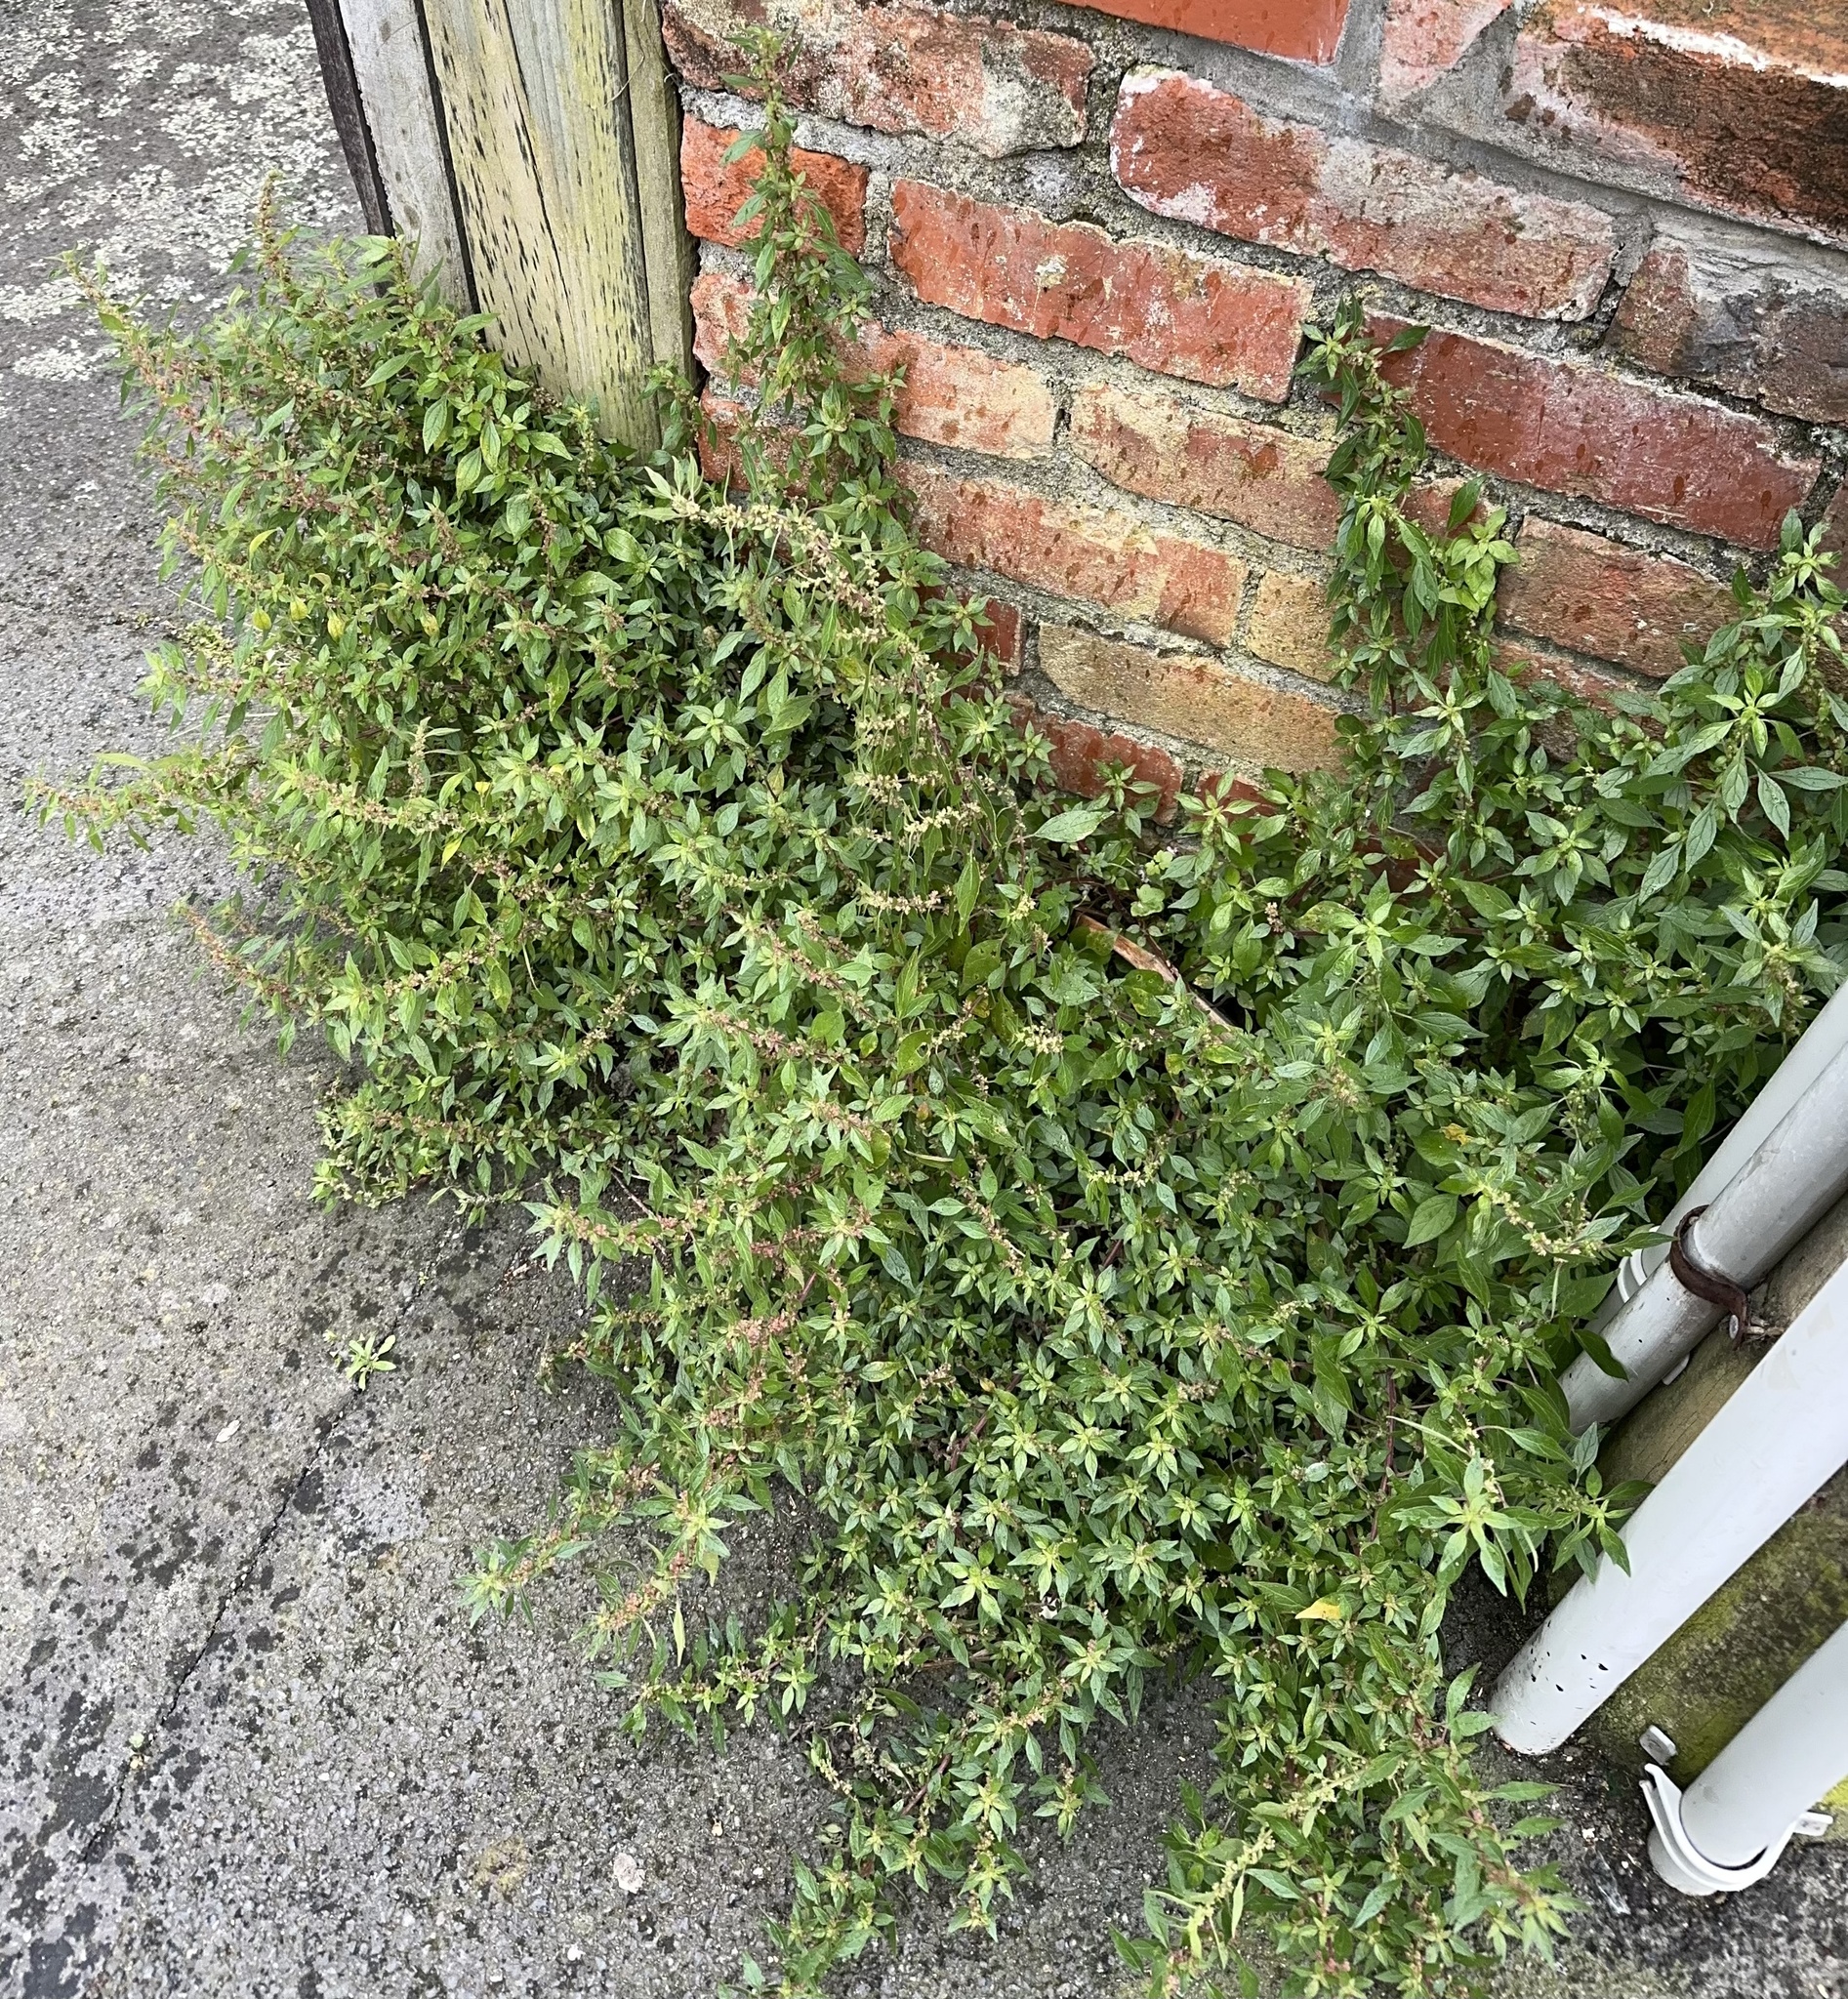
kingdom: Plantae
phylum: Tracheophyta
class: Magnoliopsida
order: Rosales
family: Urticaceae
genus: Parietaria
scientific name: Parietaria judaica
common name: Pellitory-of-the-wall
